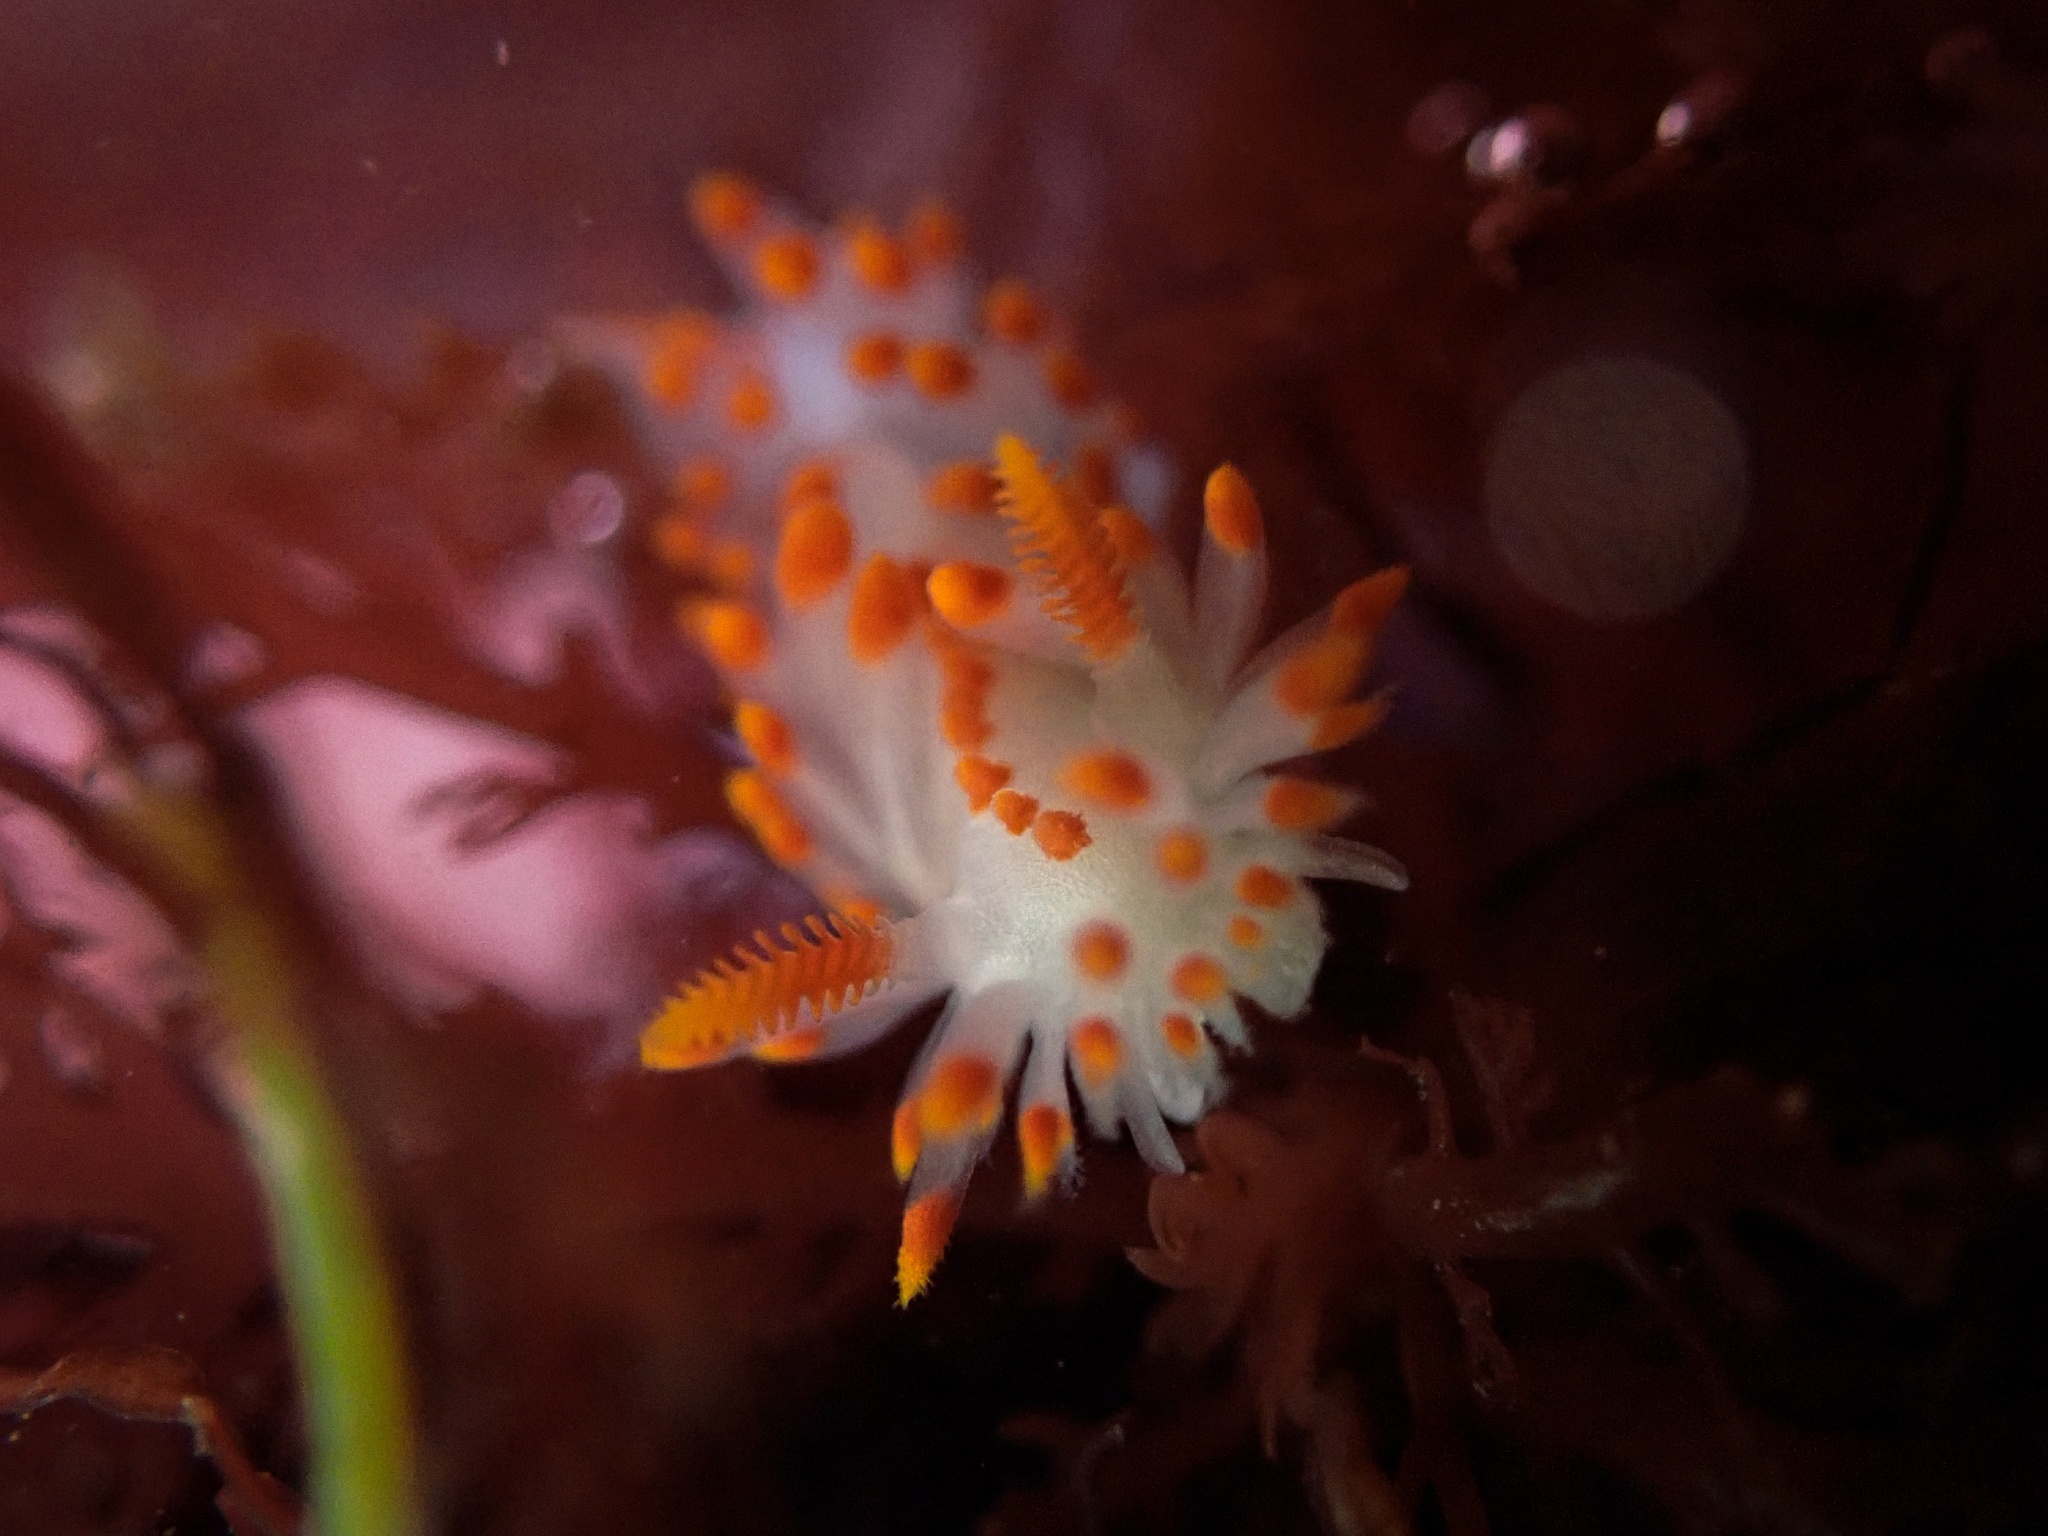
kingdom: Animalia
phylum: Mollusca
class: Gastropoda
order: Nudibranchia
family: Polyceridae
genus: Limacia
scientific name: Limacia mcdonaldi
